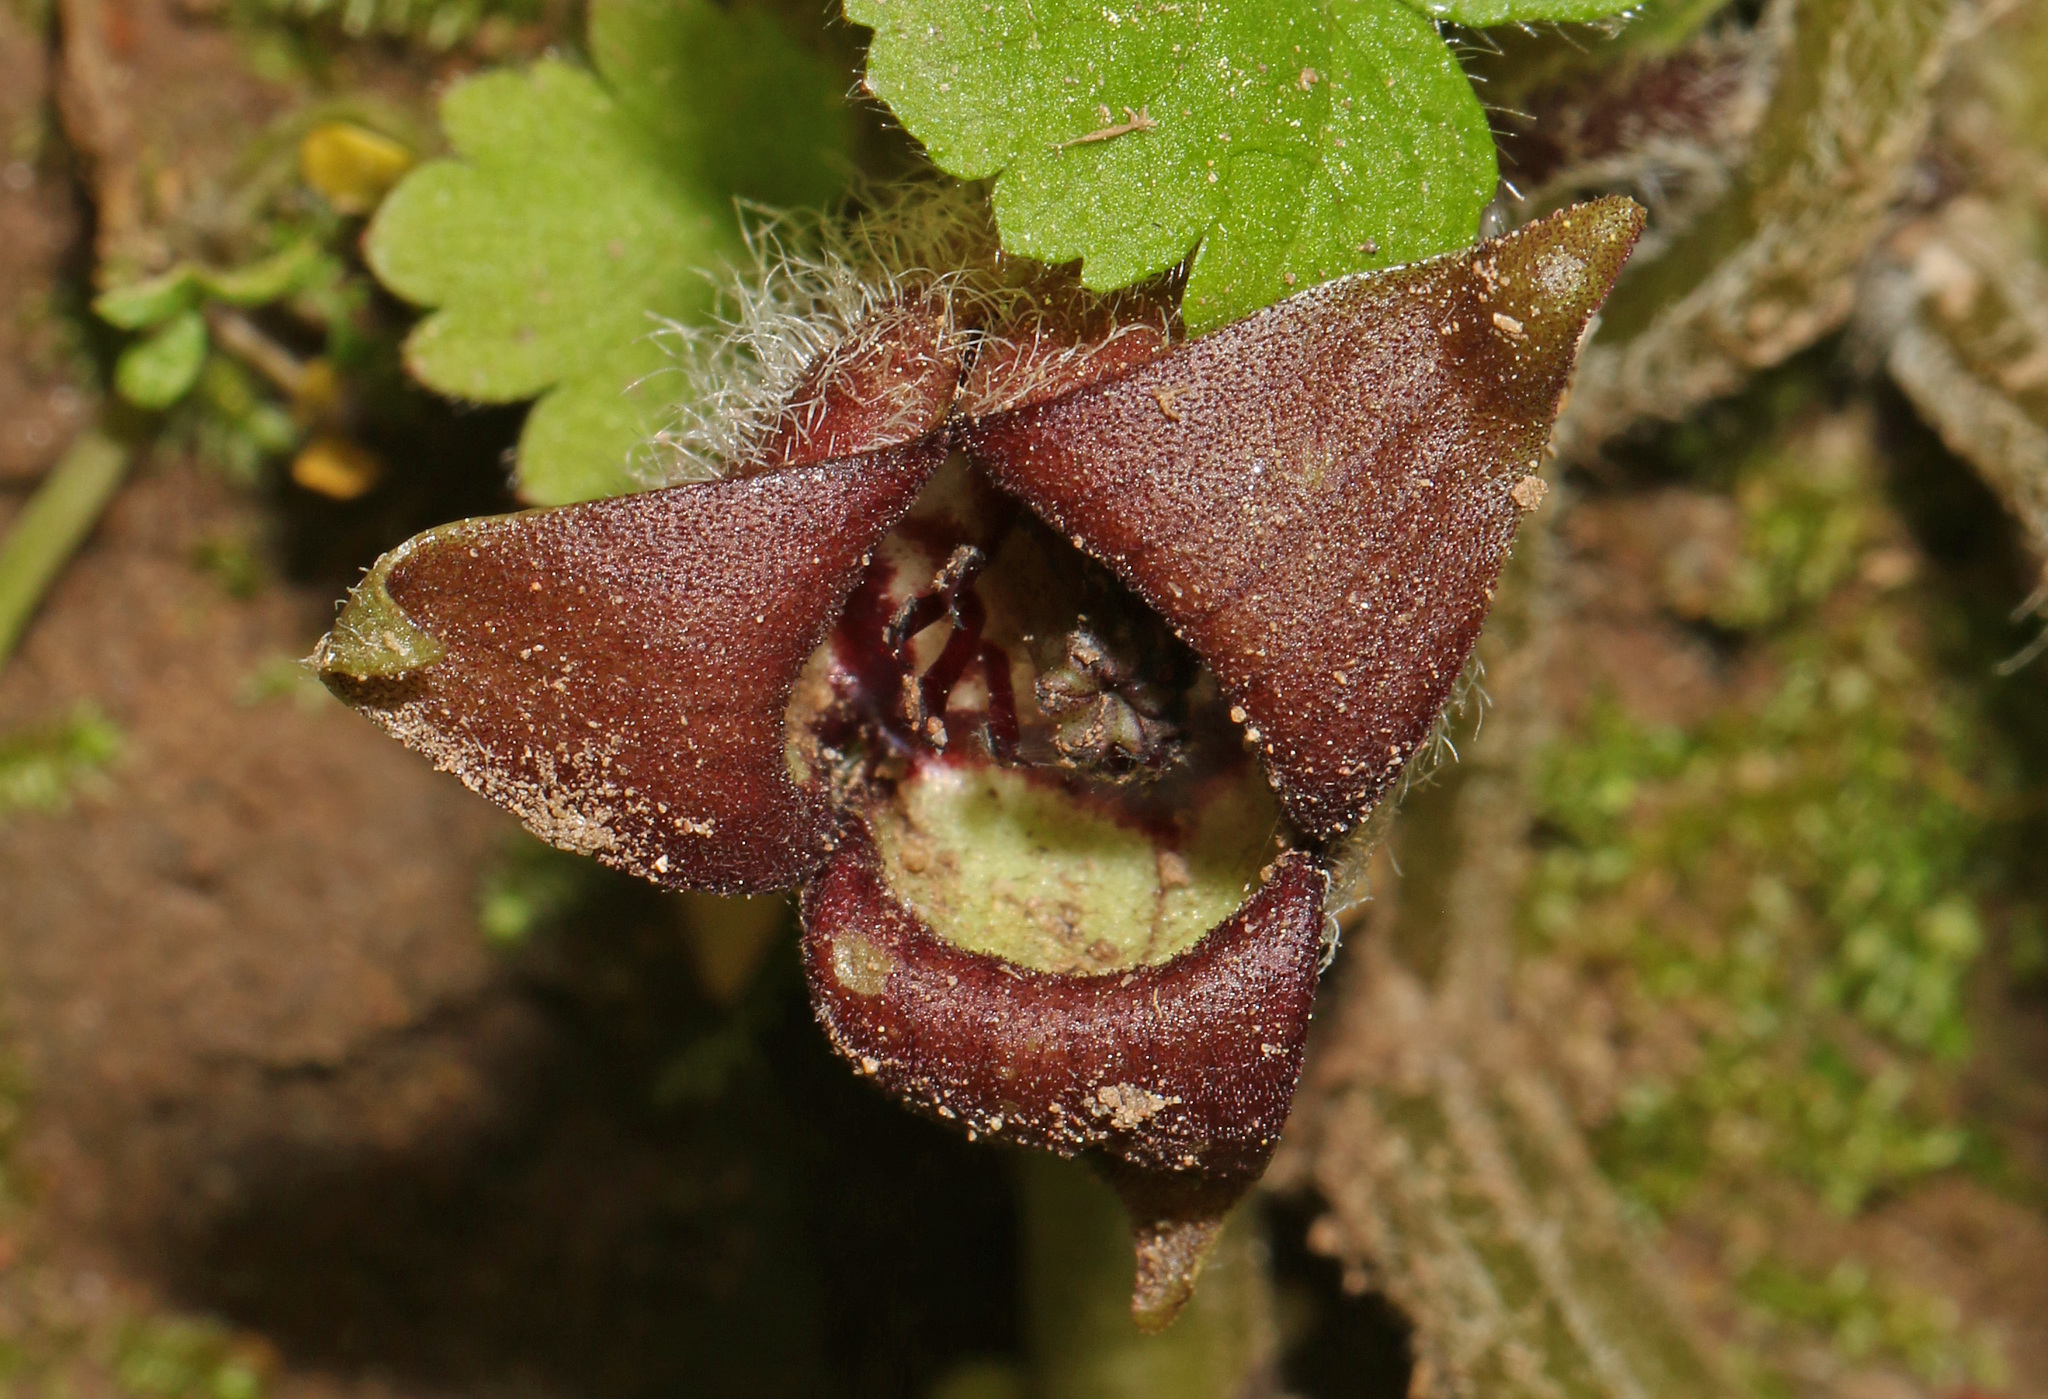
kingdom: Plantae
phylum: Tracheophyta
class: Magnoliopsida
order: Piperales
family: Aristolochiaceae
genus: Asarum
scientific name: Asarum canadense
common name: Wild ginger
